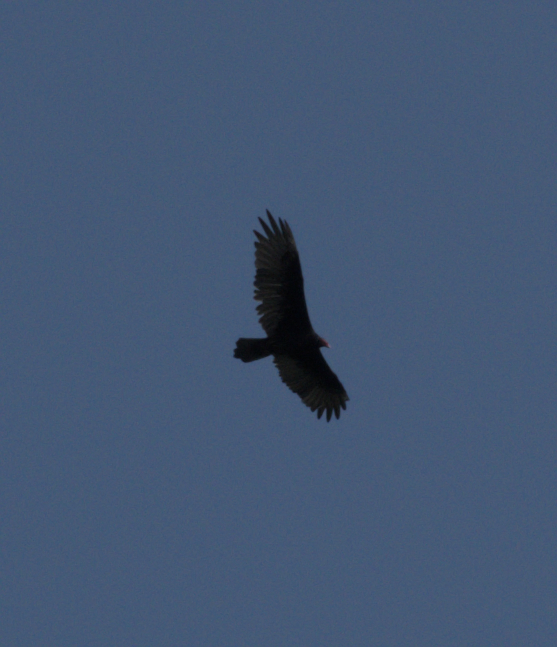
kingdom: Animalia
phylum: Chordata
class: Aves
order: Accipitriformes
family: Cathartidae
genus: Cathartes
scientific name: Cathartes aura
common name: Turkey vulture
